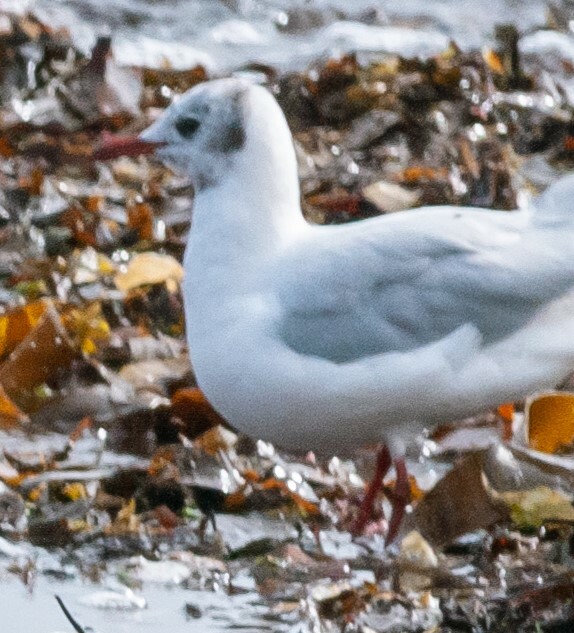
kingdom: Animalia
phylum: Chordata
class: Aves
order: Charadriiformes
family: Laridae
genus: Chroicocephalus
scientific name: Chroicocephalus ridibundus
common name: Black-headed gull
